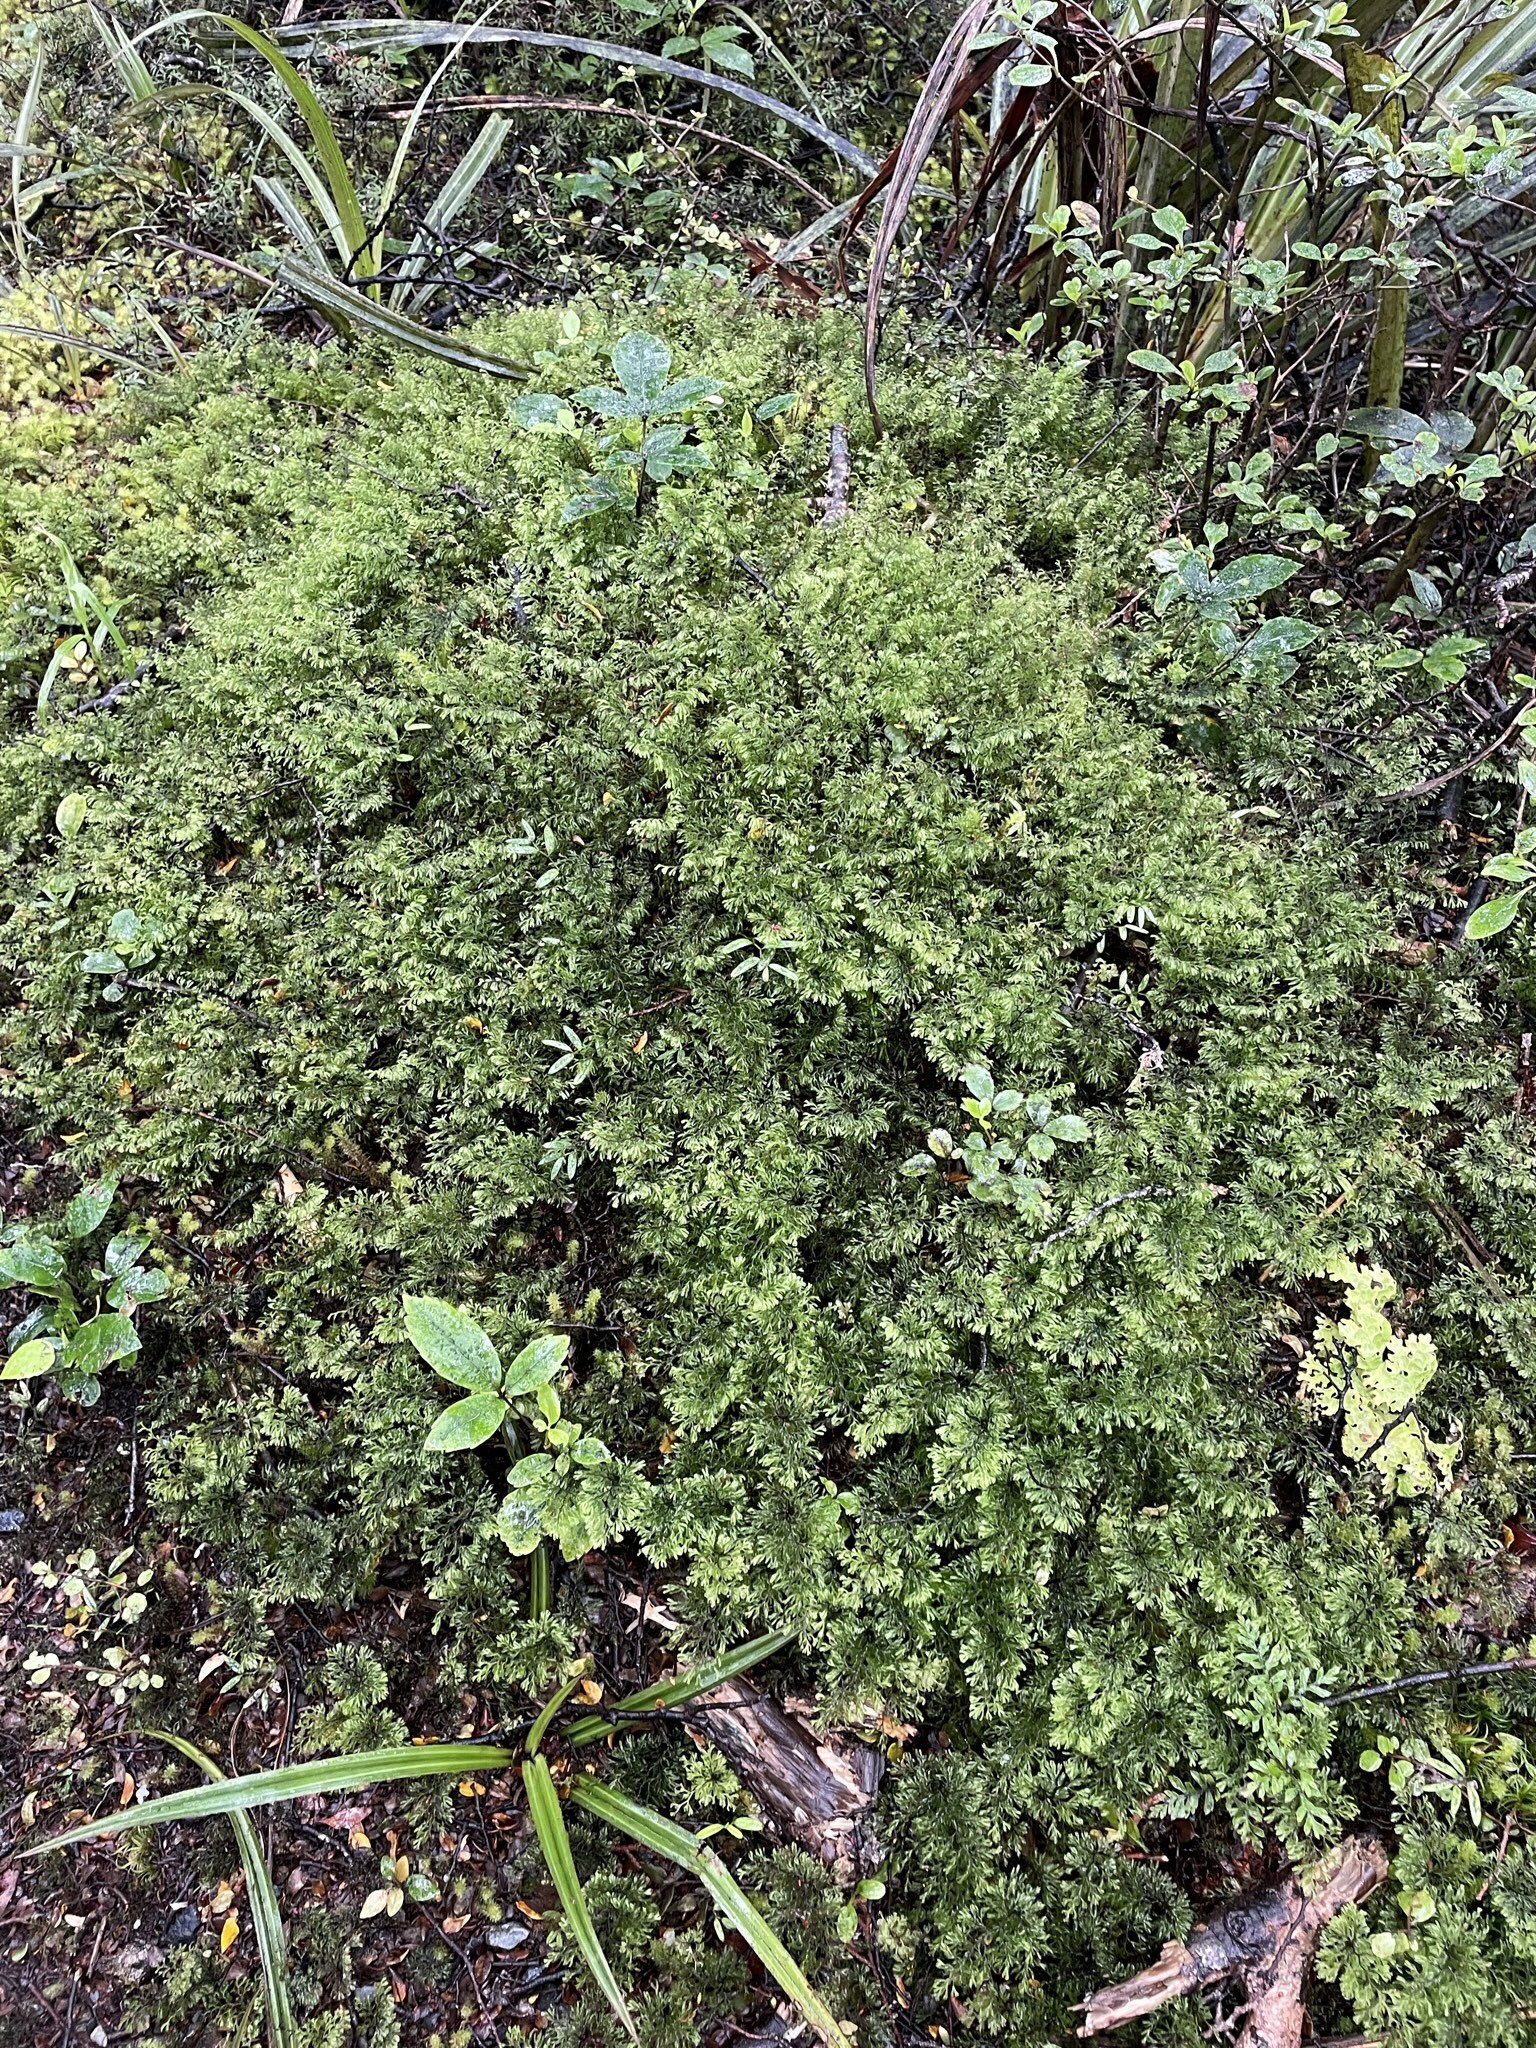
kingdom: Plantae
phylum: Tracheophyta
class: Polypodiopsida
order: Hymenophyllales
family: Hymenophyllaceae
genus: Hymenophyllum
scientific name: Hymenophyllum multifidum
